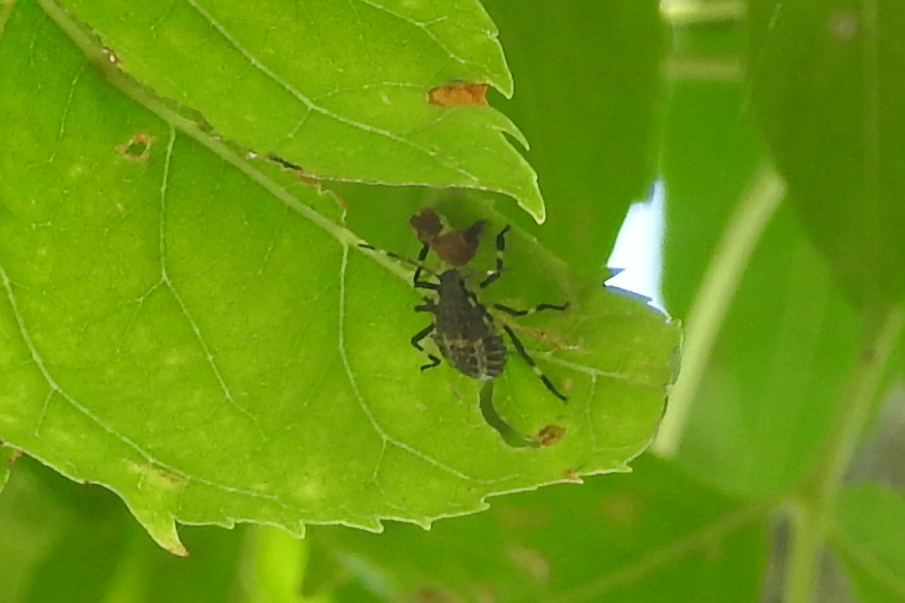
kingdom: Animalia
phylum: Arthropoda
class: Insecta
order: Hemiptera
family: Pentatomidae
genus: Halyomorpha
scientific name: Halyomorpha halys
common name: Brown marmorated stink bug
